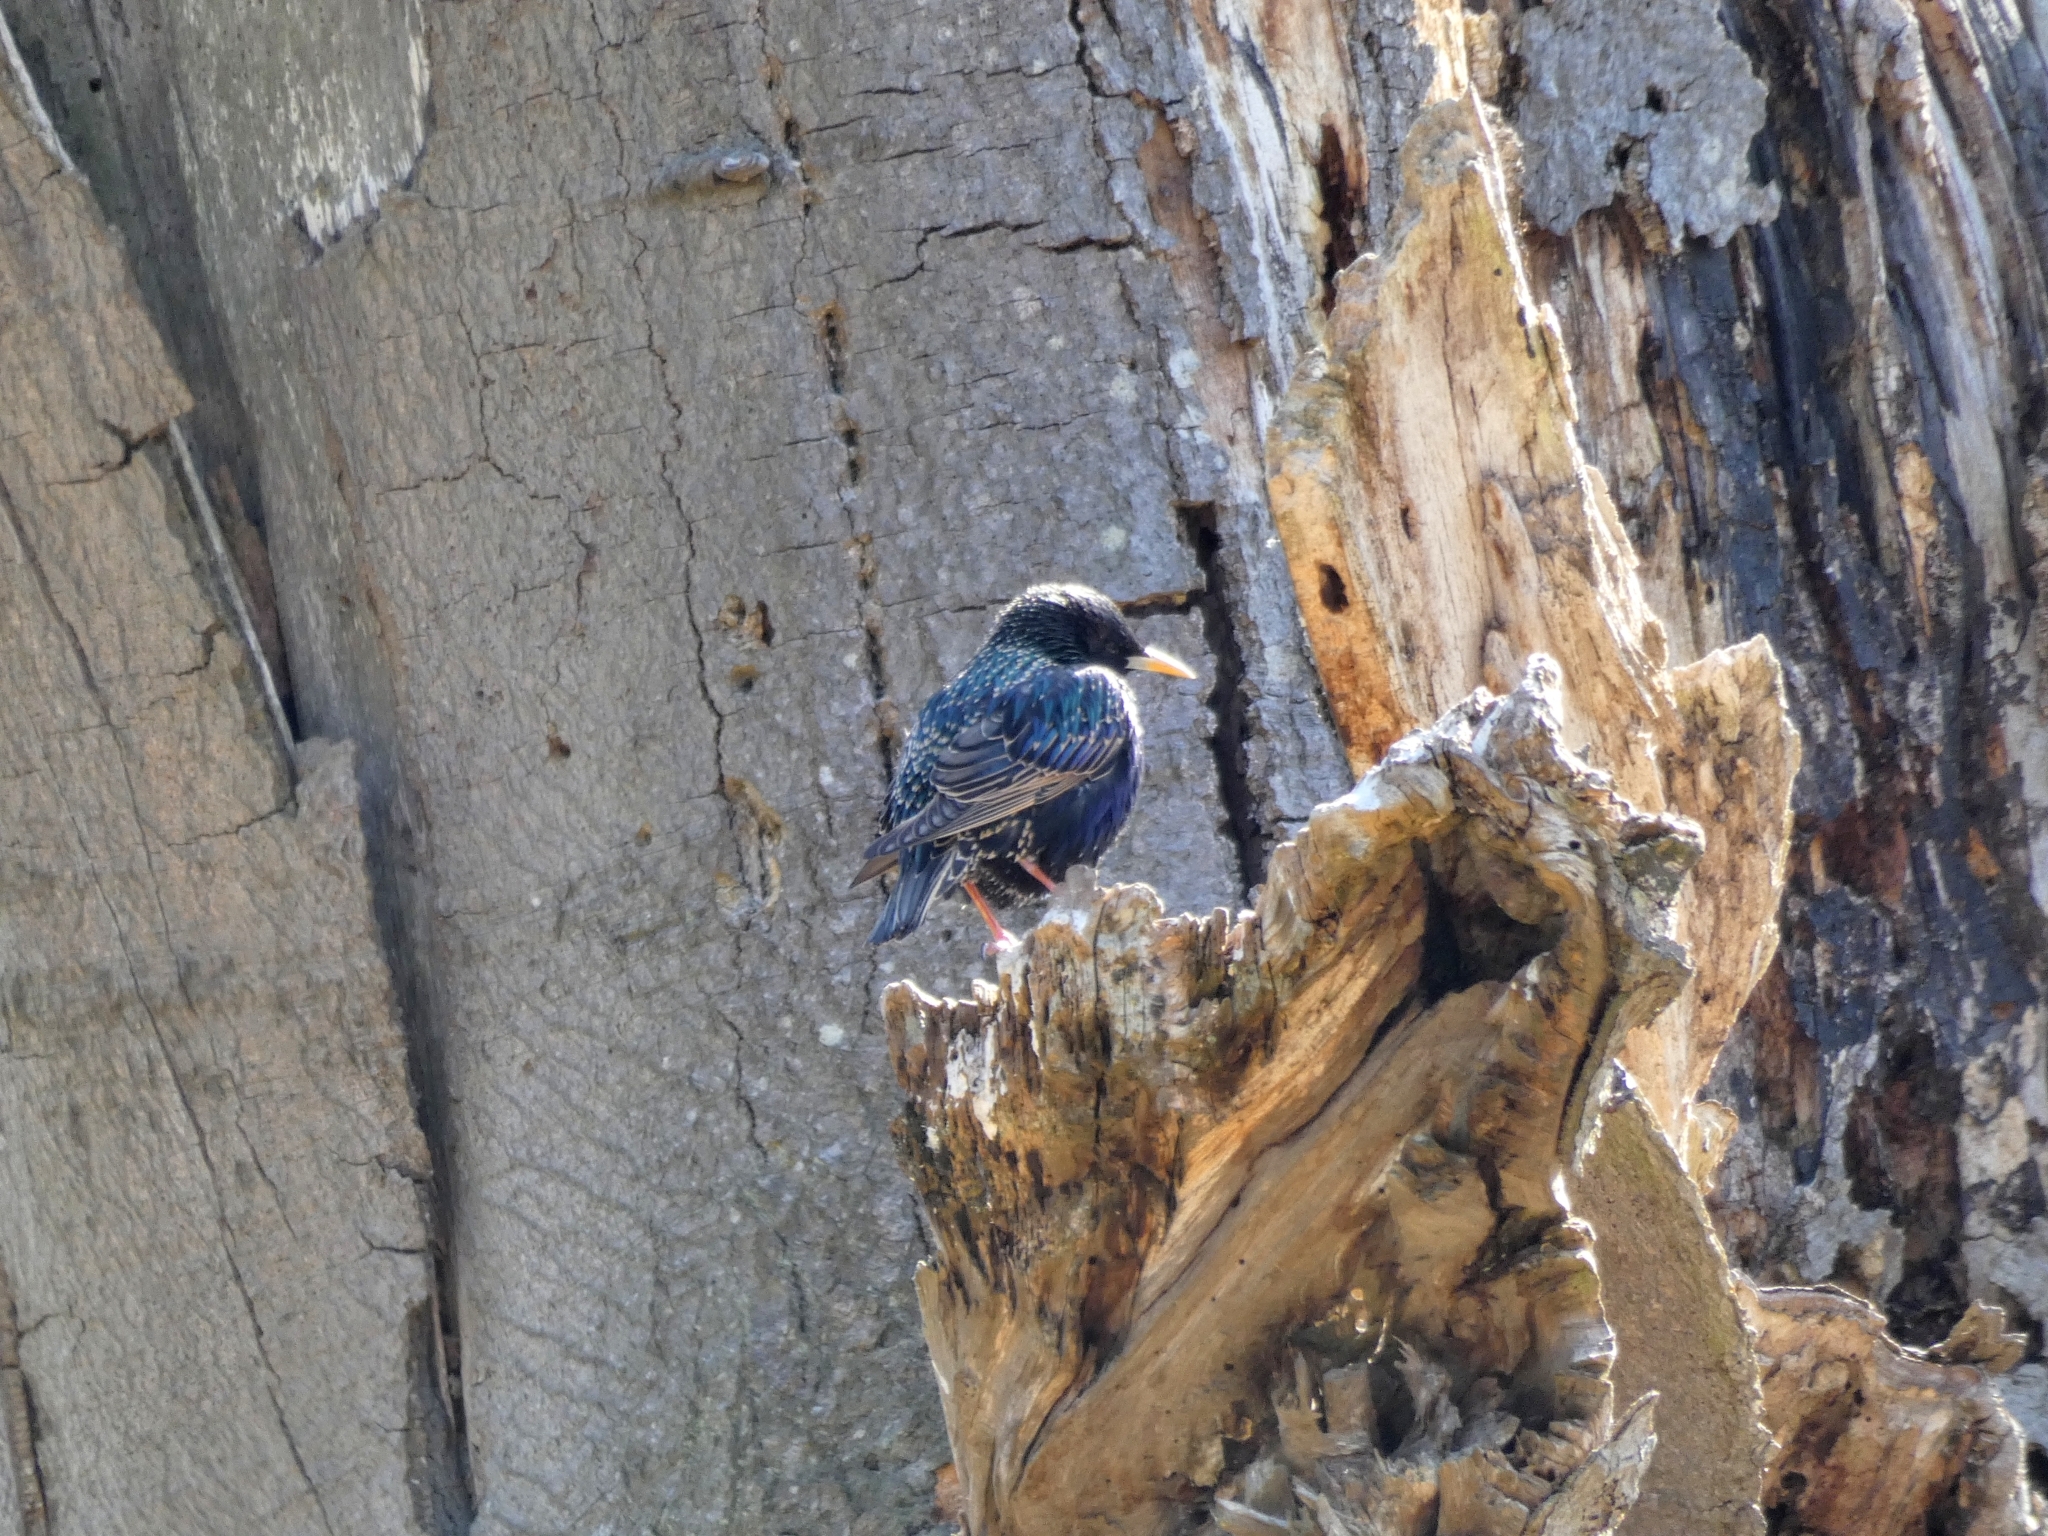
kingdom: Animalia
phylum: Chordata
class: Aves
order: Passeriformes
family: Sturnidae
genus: Sturnus
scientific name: Sturnus vulgaris
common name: Common starling
